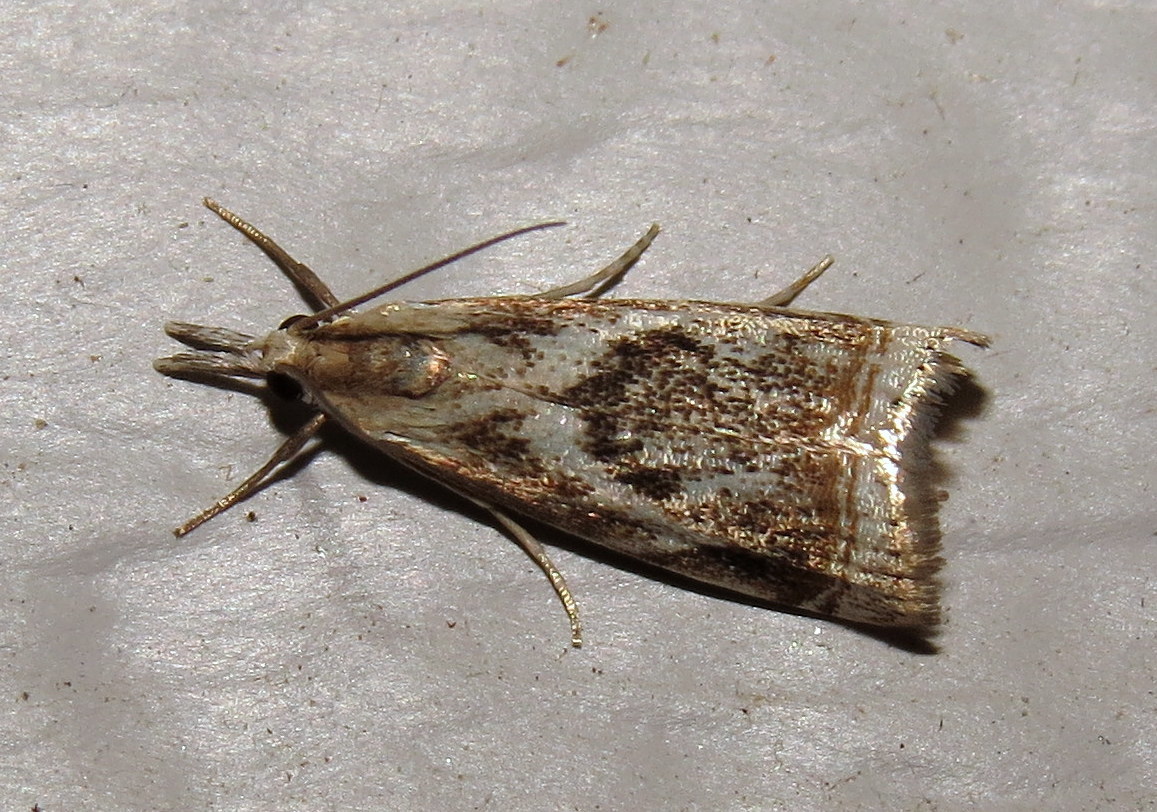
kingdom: Animalia
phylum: Arthropoda
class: Insecta
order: Lepidoptera
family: Crambidae
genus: Microcrambus
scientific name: Microcrambus elegans
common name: Elegant grass-veneer
